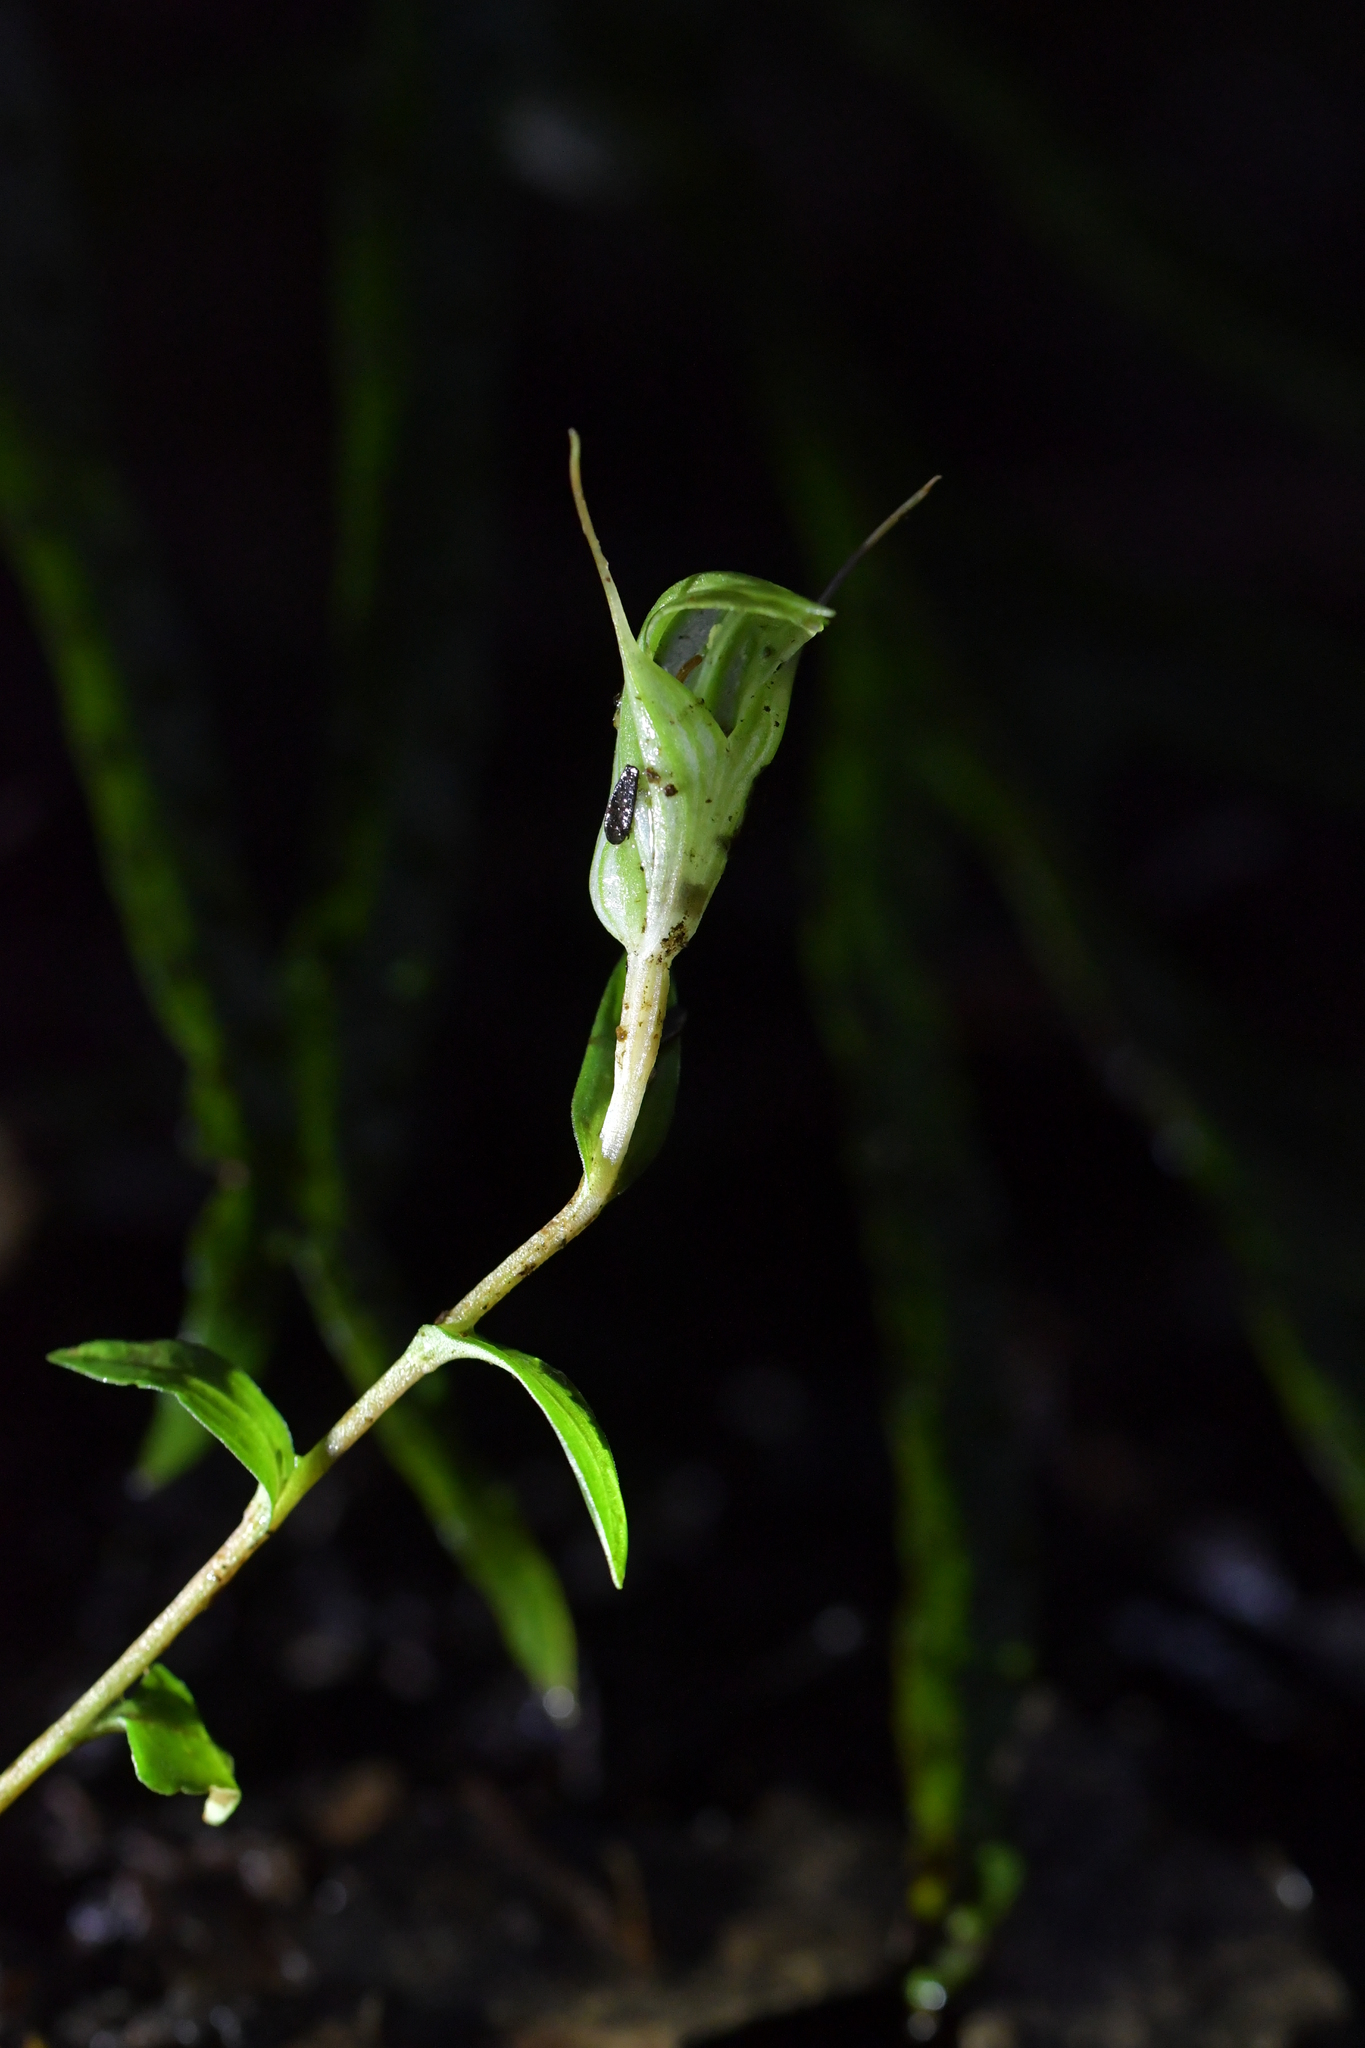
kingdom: Plantae
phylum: Tracheophyta
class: Liliopsida
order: Asparagales
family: Orchidaceae
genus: Pterostylis
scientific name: Pterostylis alobula
